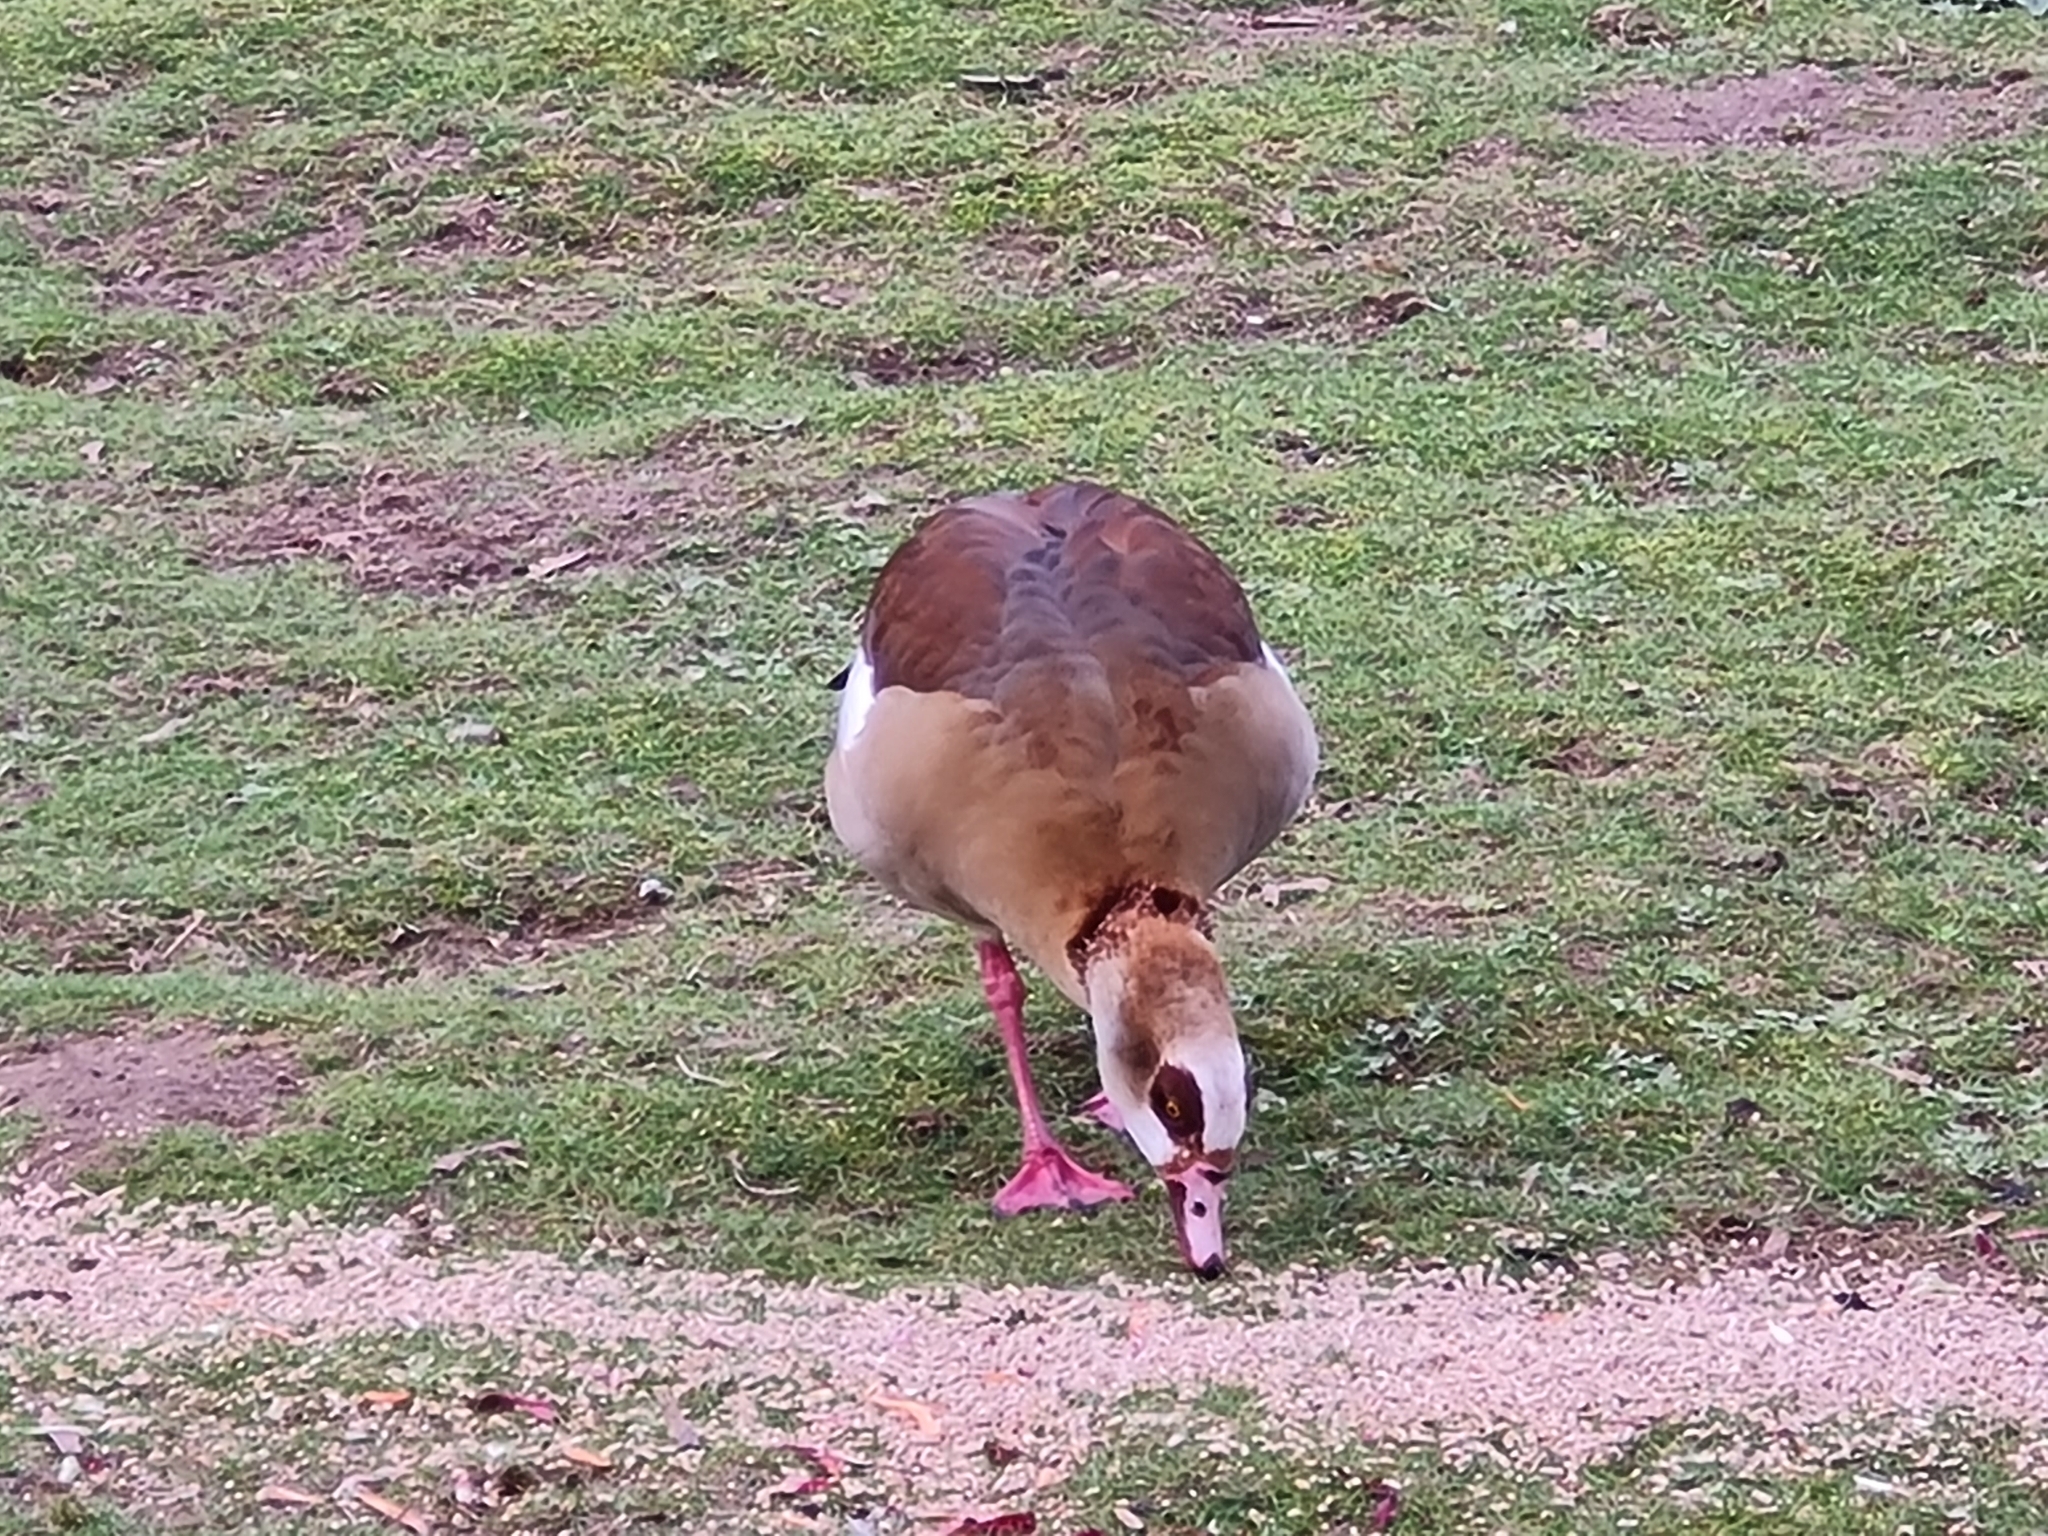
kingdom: Animalia
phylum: Chordata
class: Aves
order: Anseriformes
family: Anatidae
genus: Alopochen
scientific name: Alopochen aegyptiaca
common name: Egyptian goose
